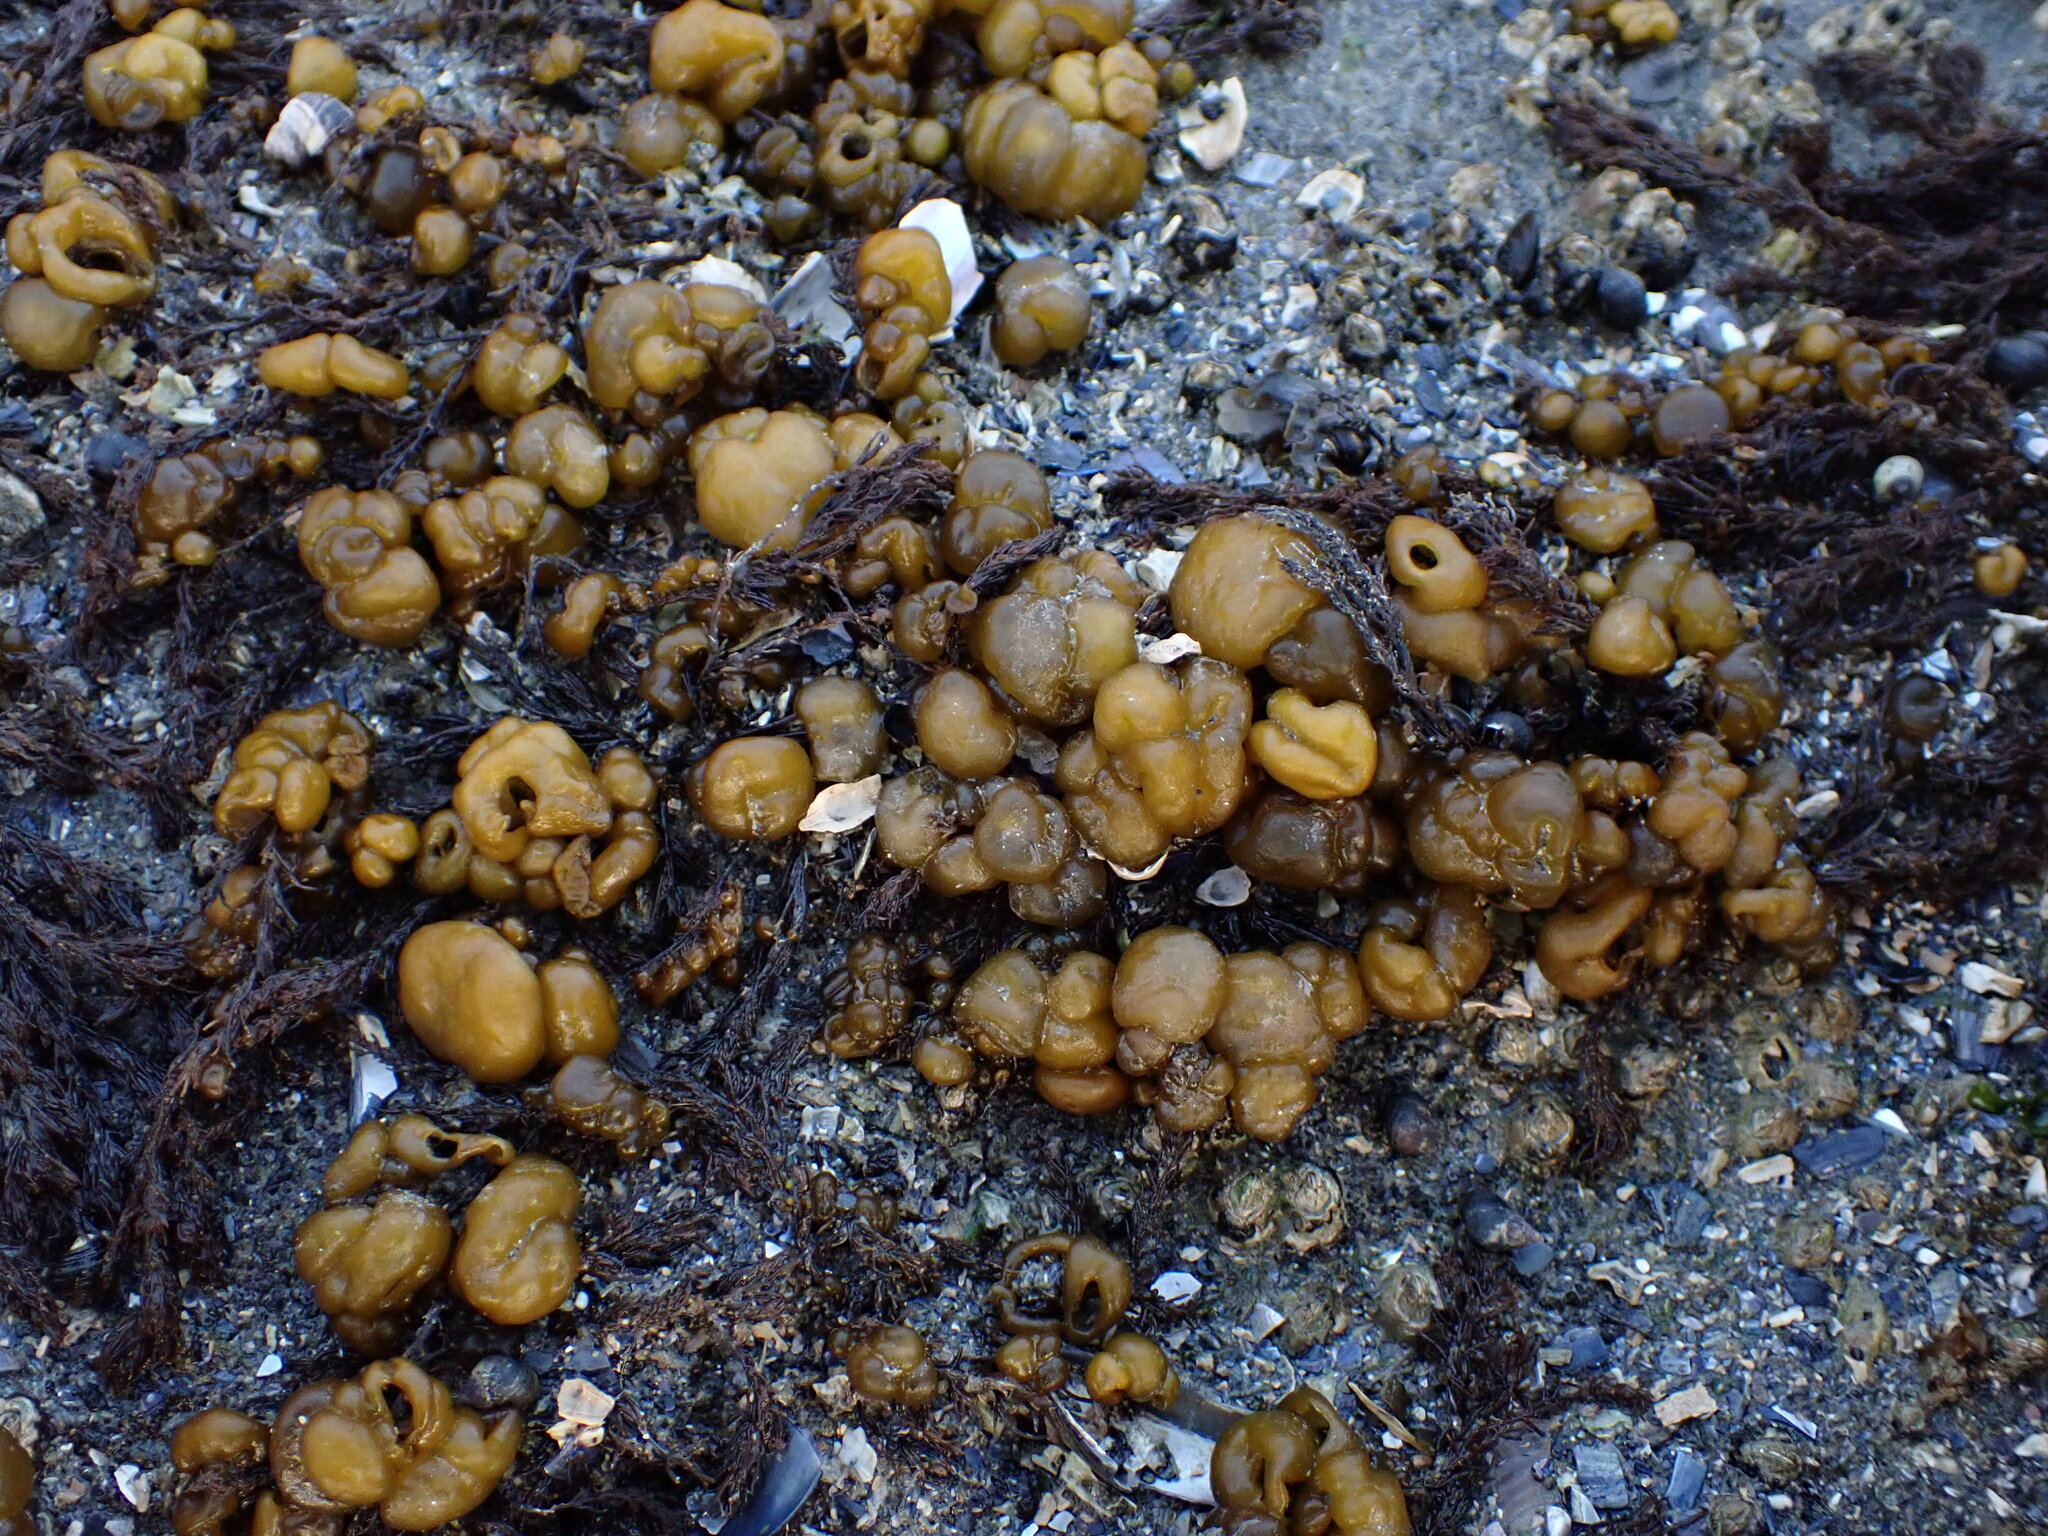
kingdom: Chromista
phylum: Ochrophyta
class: Phaeophyceae
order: Ectocarpales
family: Chordariaceae
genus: Leathesia
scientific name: Leathesia marina
